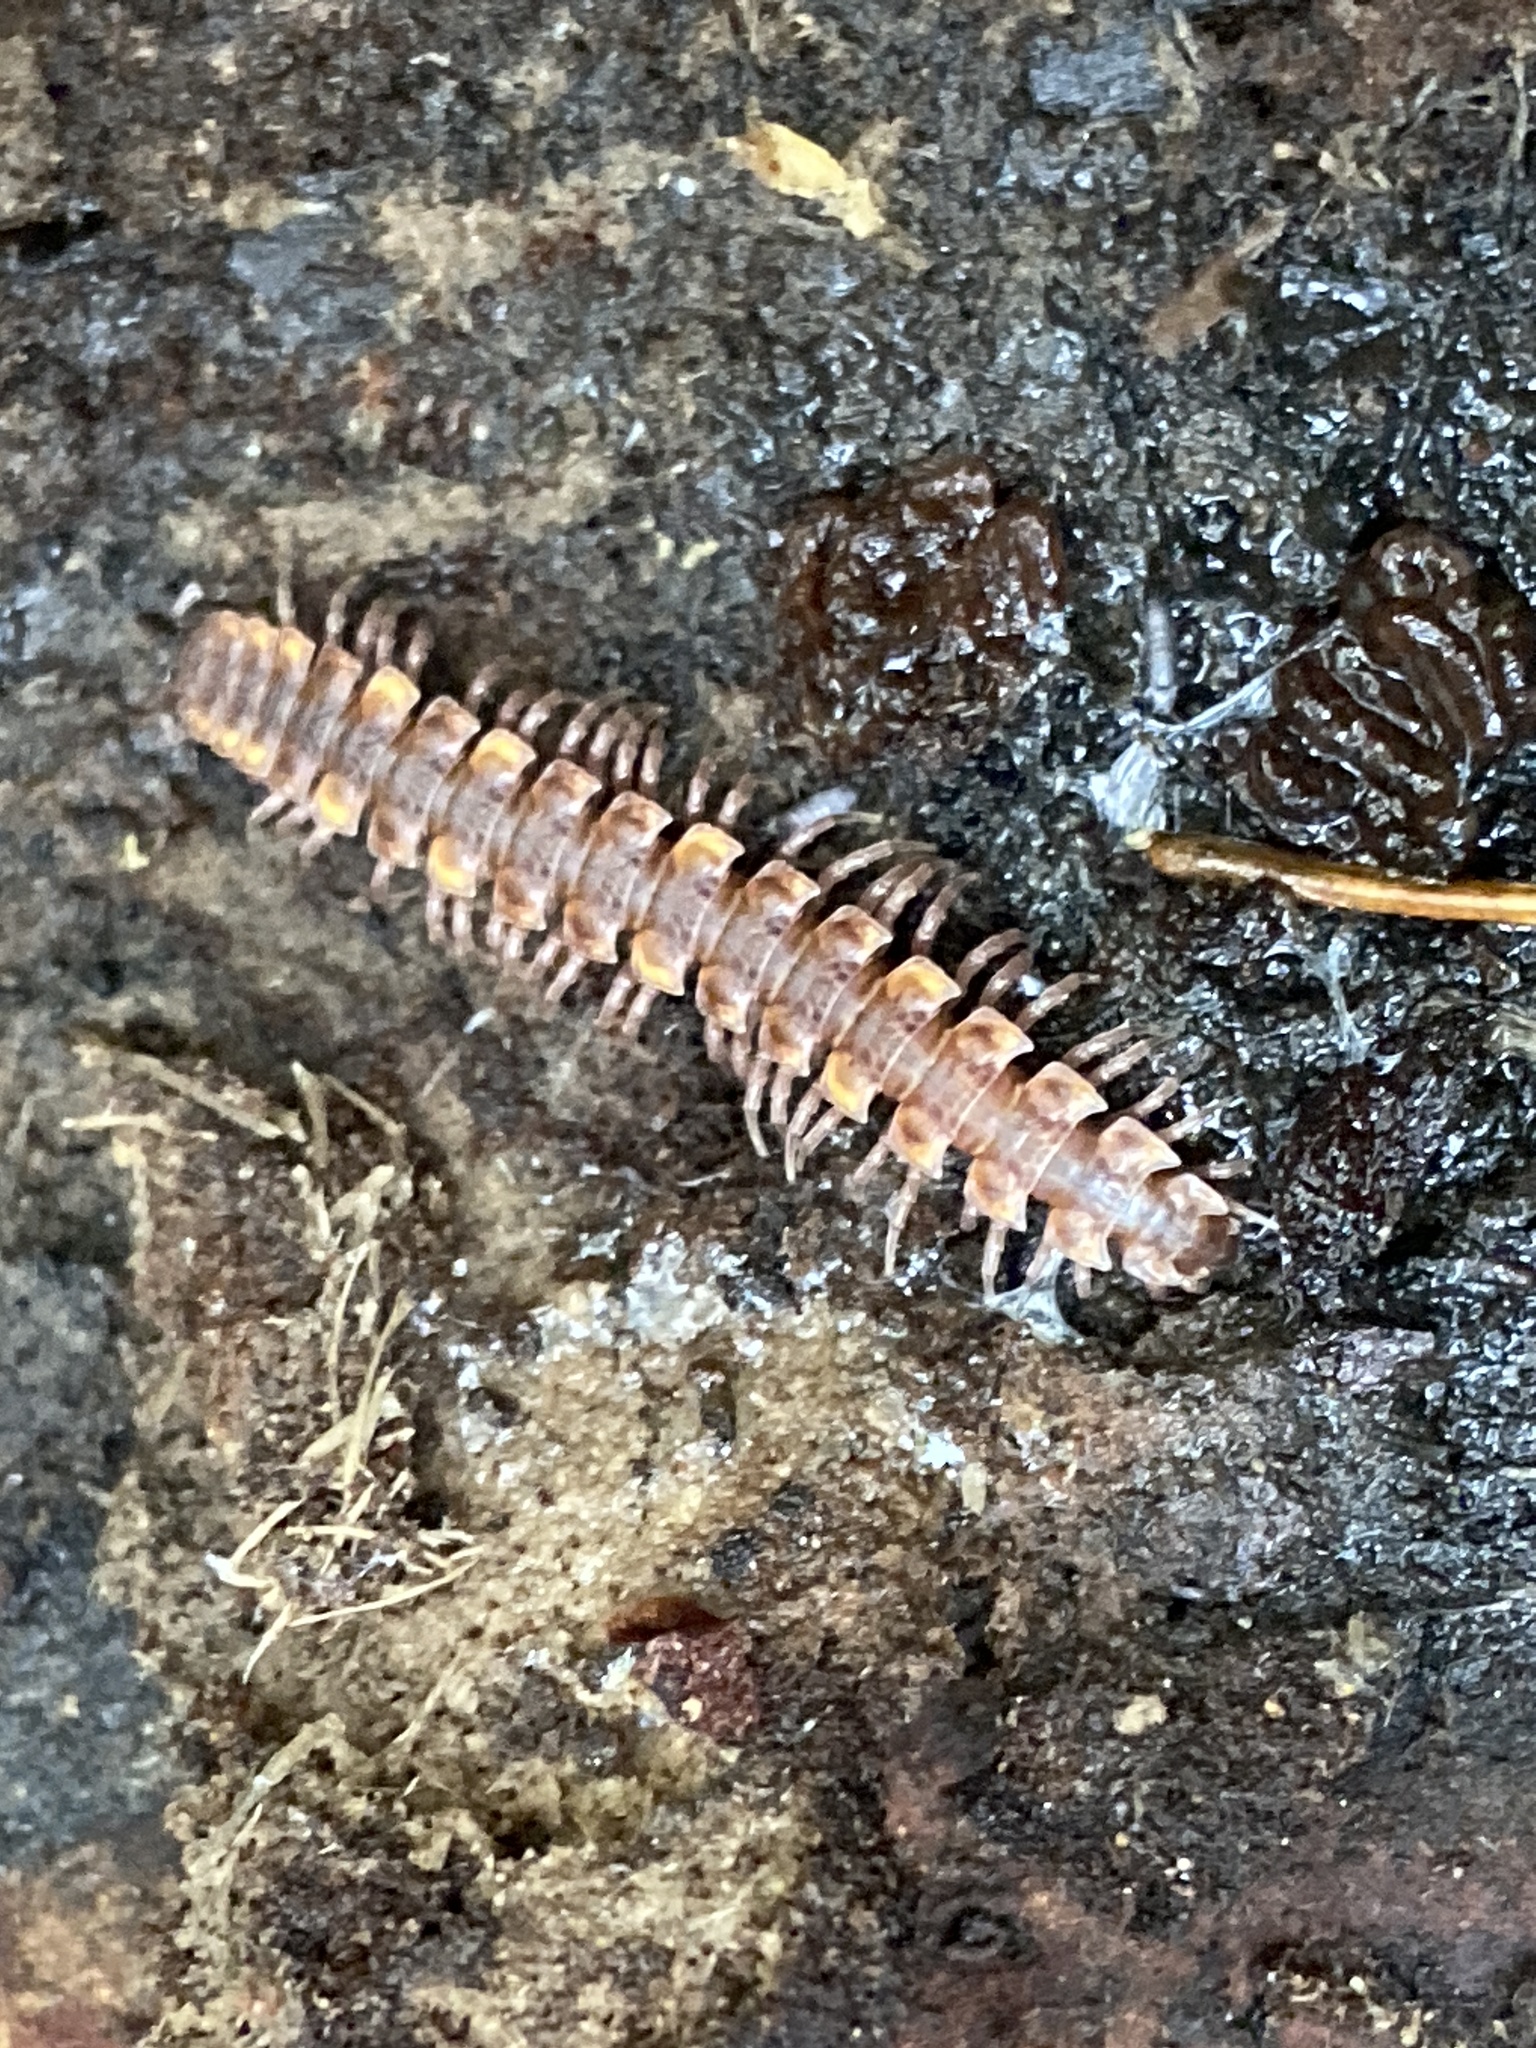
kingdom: Animalia
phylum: Arthropoda
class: Diplopoda
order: Polydesmida
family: Polydesmidae
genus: Polydesmus
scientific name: Polydesmus complanatus
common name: Flat-backed millipede
